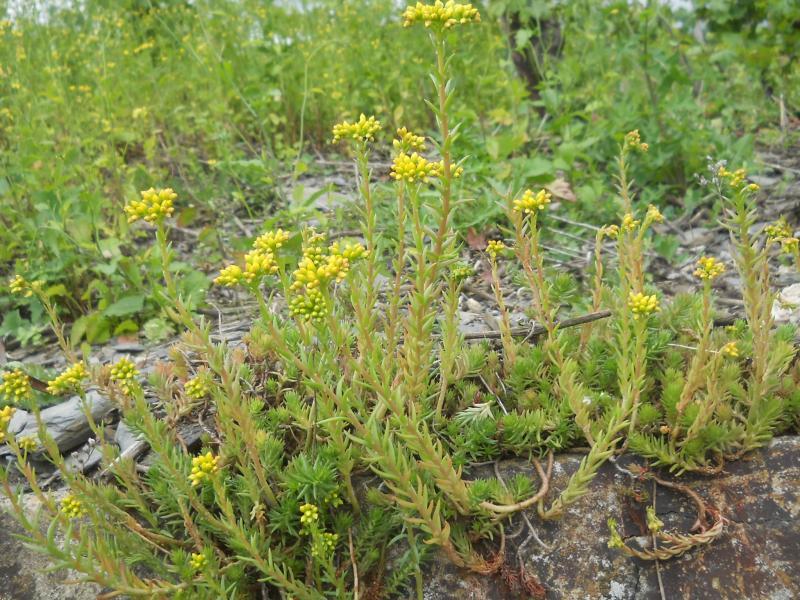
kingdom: Plantae
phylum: Tracheophyta
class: Magnoliopsida
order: Saxifragales
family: Crassulaceae
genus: Petrosedum
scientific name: Petrosedum rupestre
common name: Jenny's stonecrop
